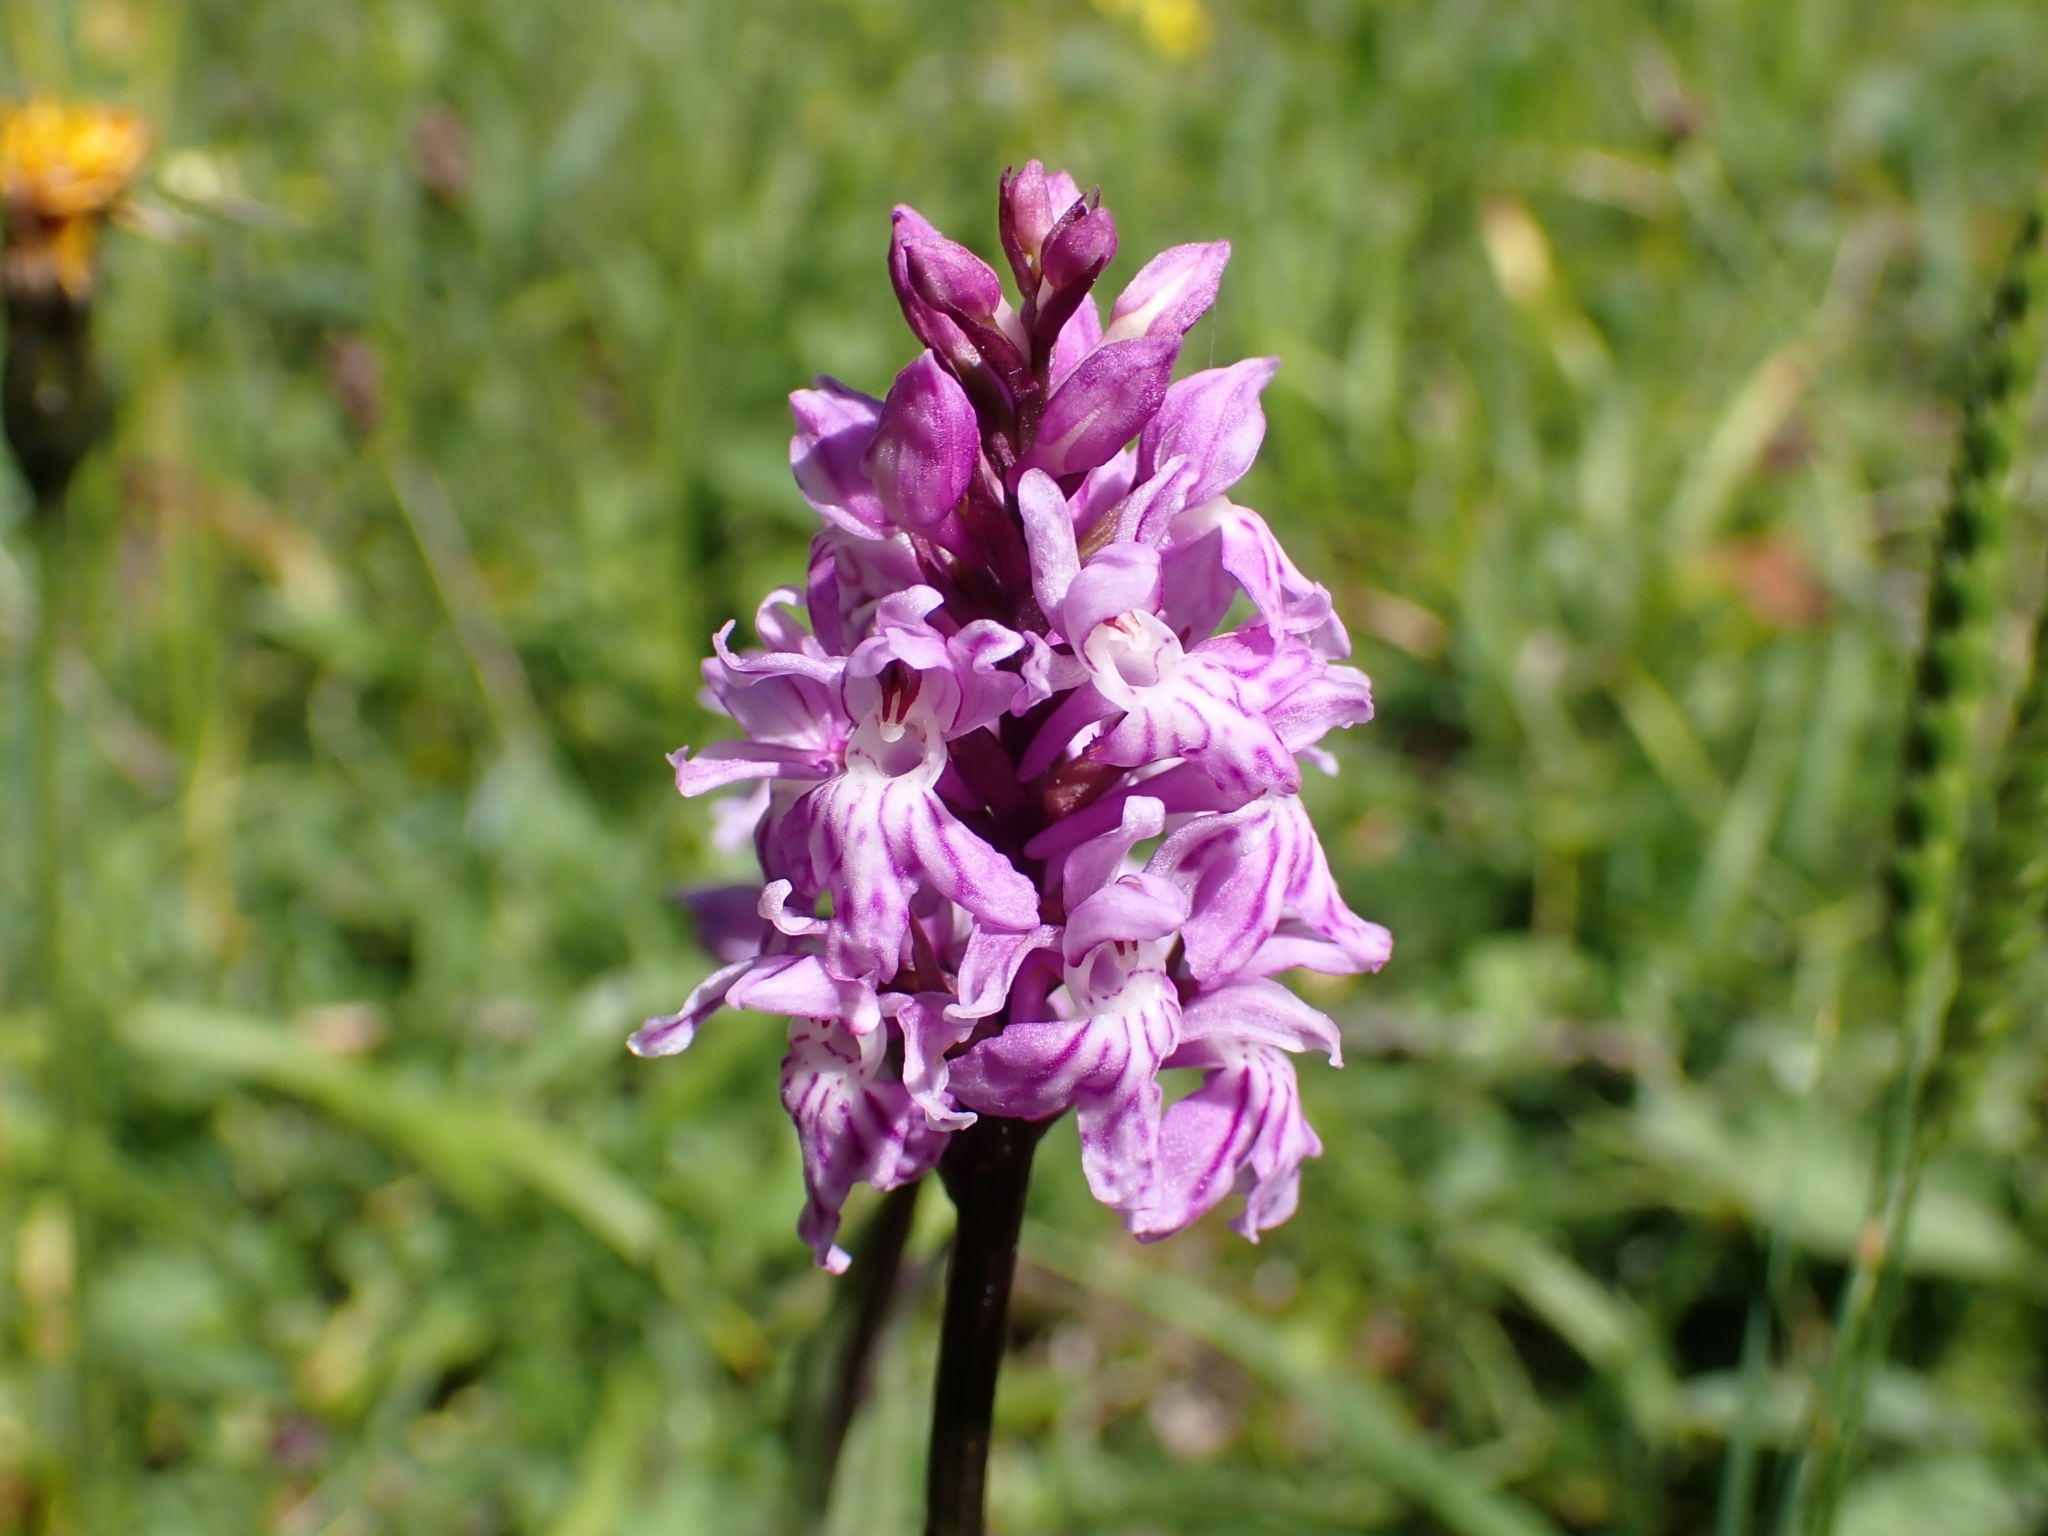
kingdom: Plantae
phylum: Tracheophyta
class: Liliopsida
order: Asparagales
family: Orchidaceae
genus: Dactylorhiza
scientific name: Dactylorhiza maculata
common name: Heath spotted-orchid
